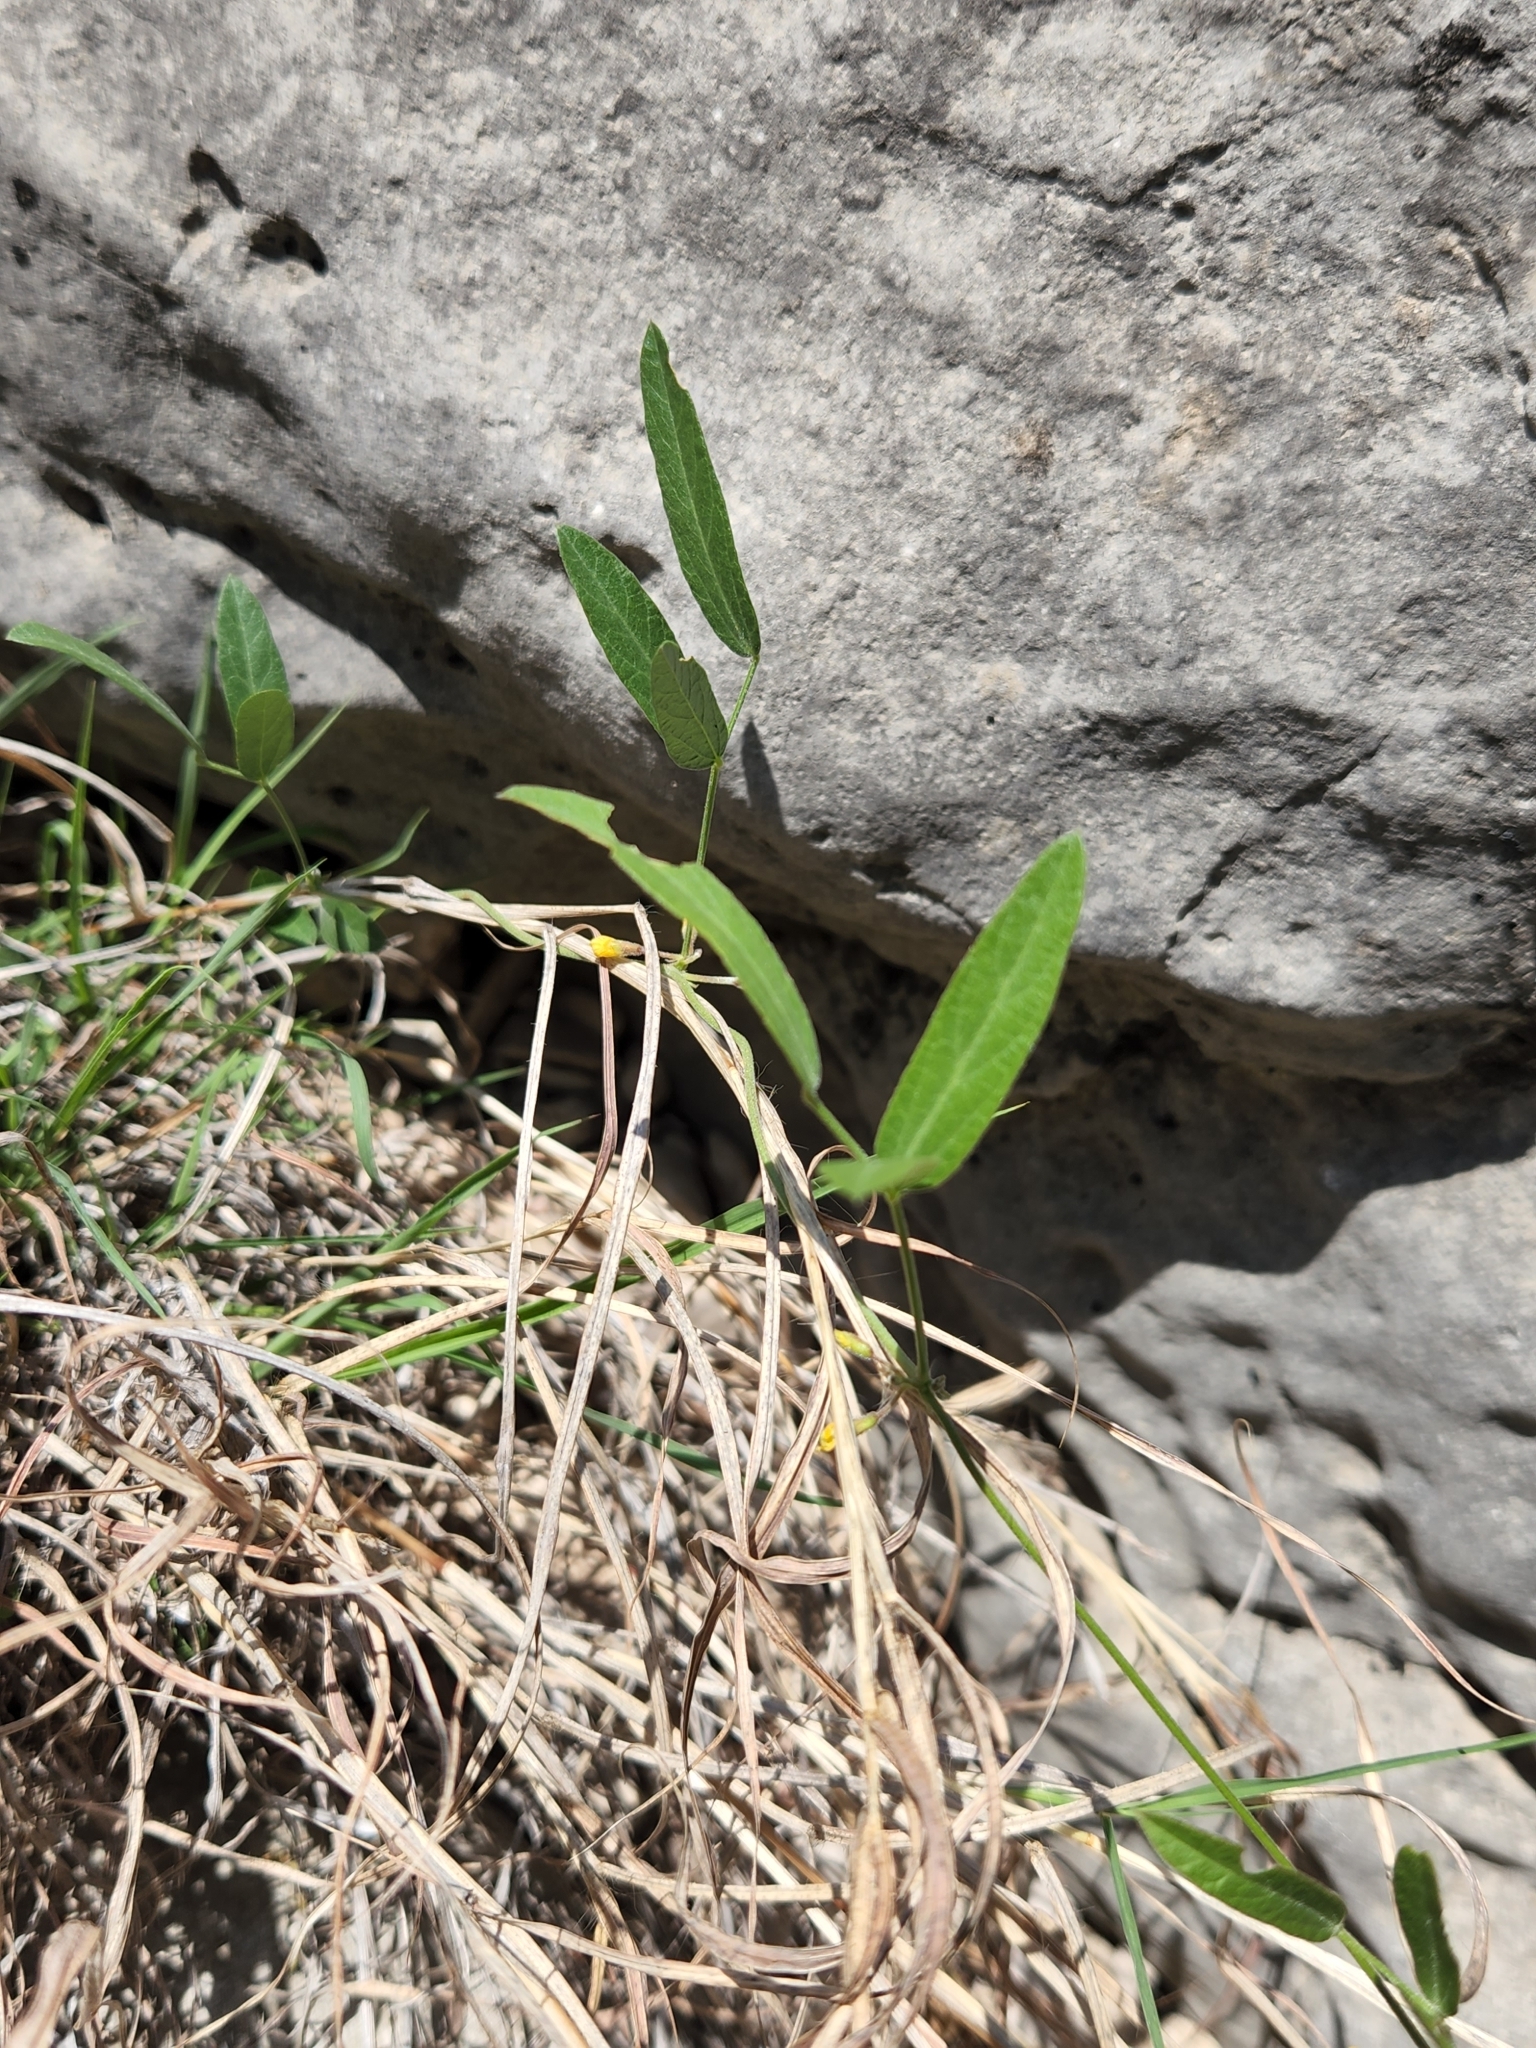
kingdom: Plantae
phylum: Tracheophyta
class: Magnoliopsida
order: Fabales
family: Fabaceae
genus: Rhynchosia
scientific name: Rhynchosia senna
